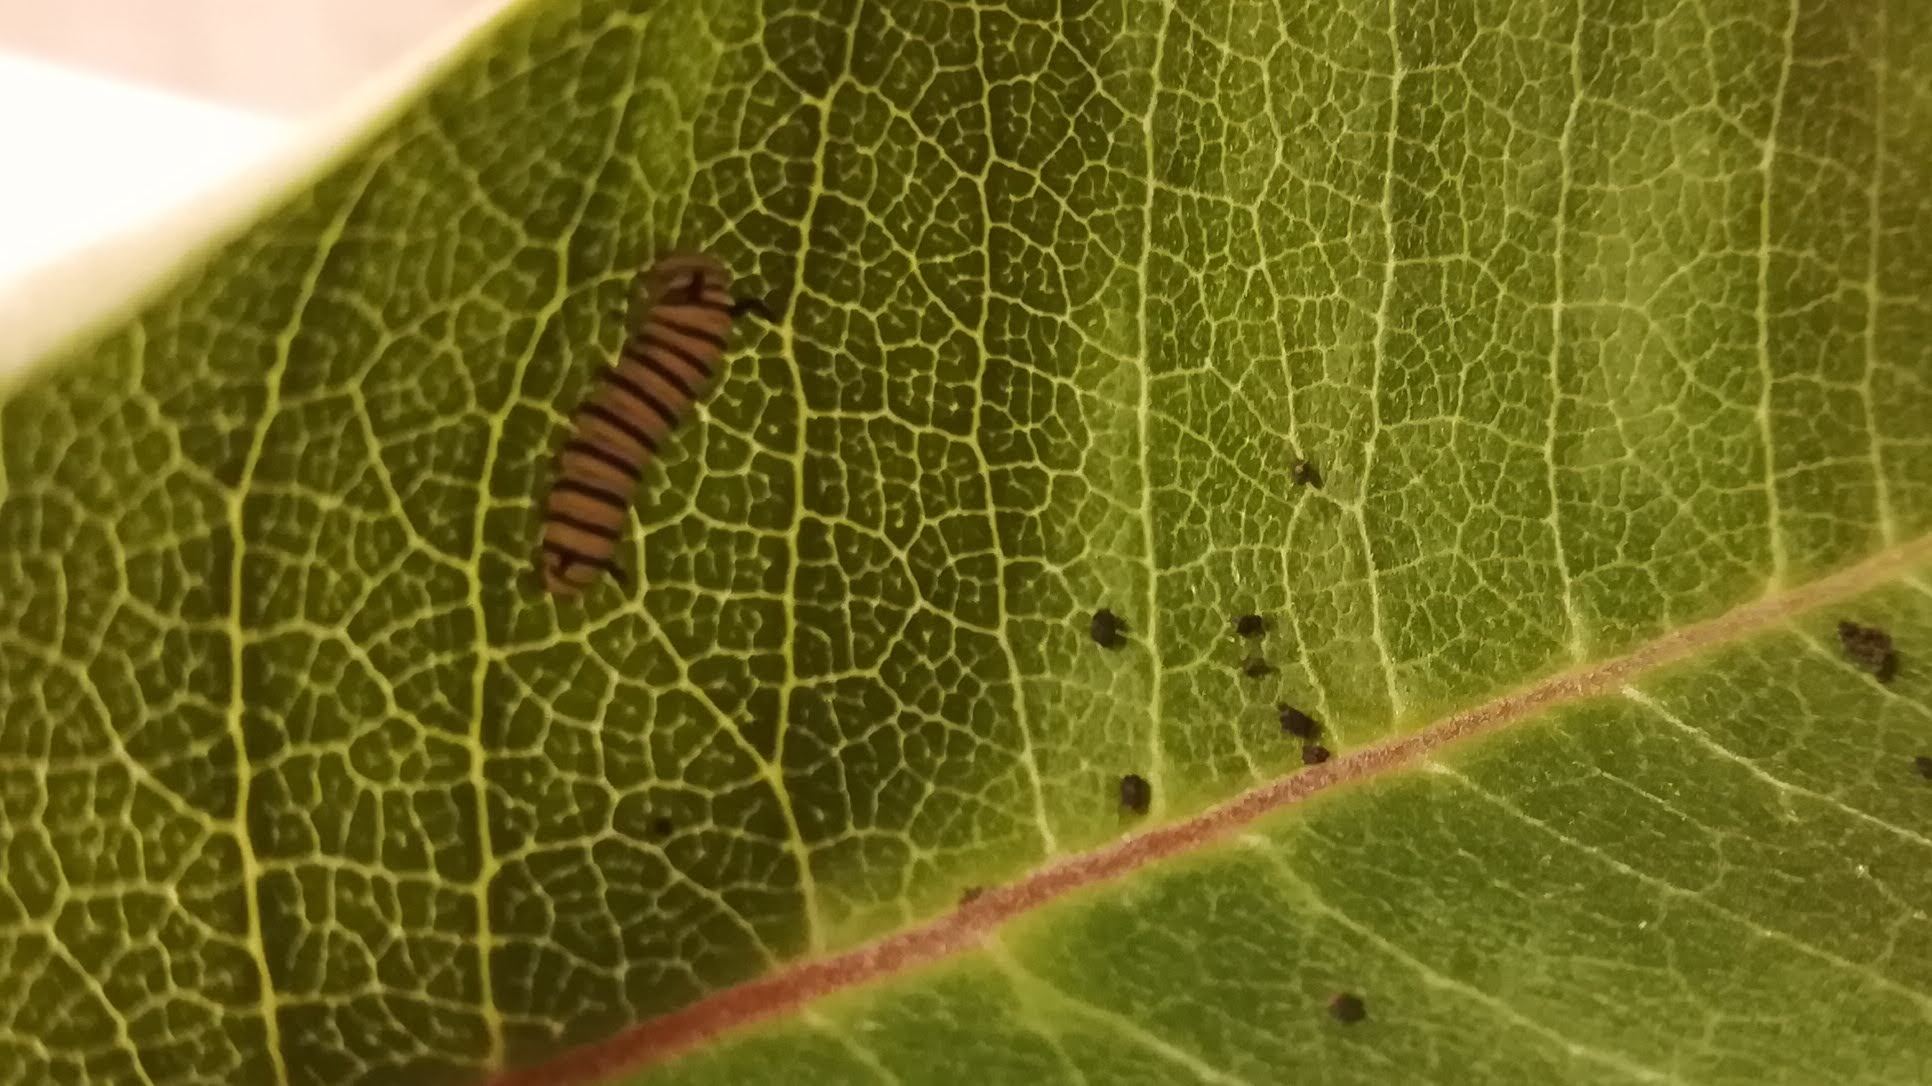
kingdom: Animalia
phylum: Arthropoda
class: Insecta
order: Lepidoptera
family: Nymphalidae
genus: Danaus
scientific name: Danaus plexippus
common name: Monarch
